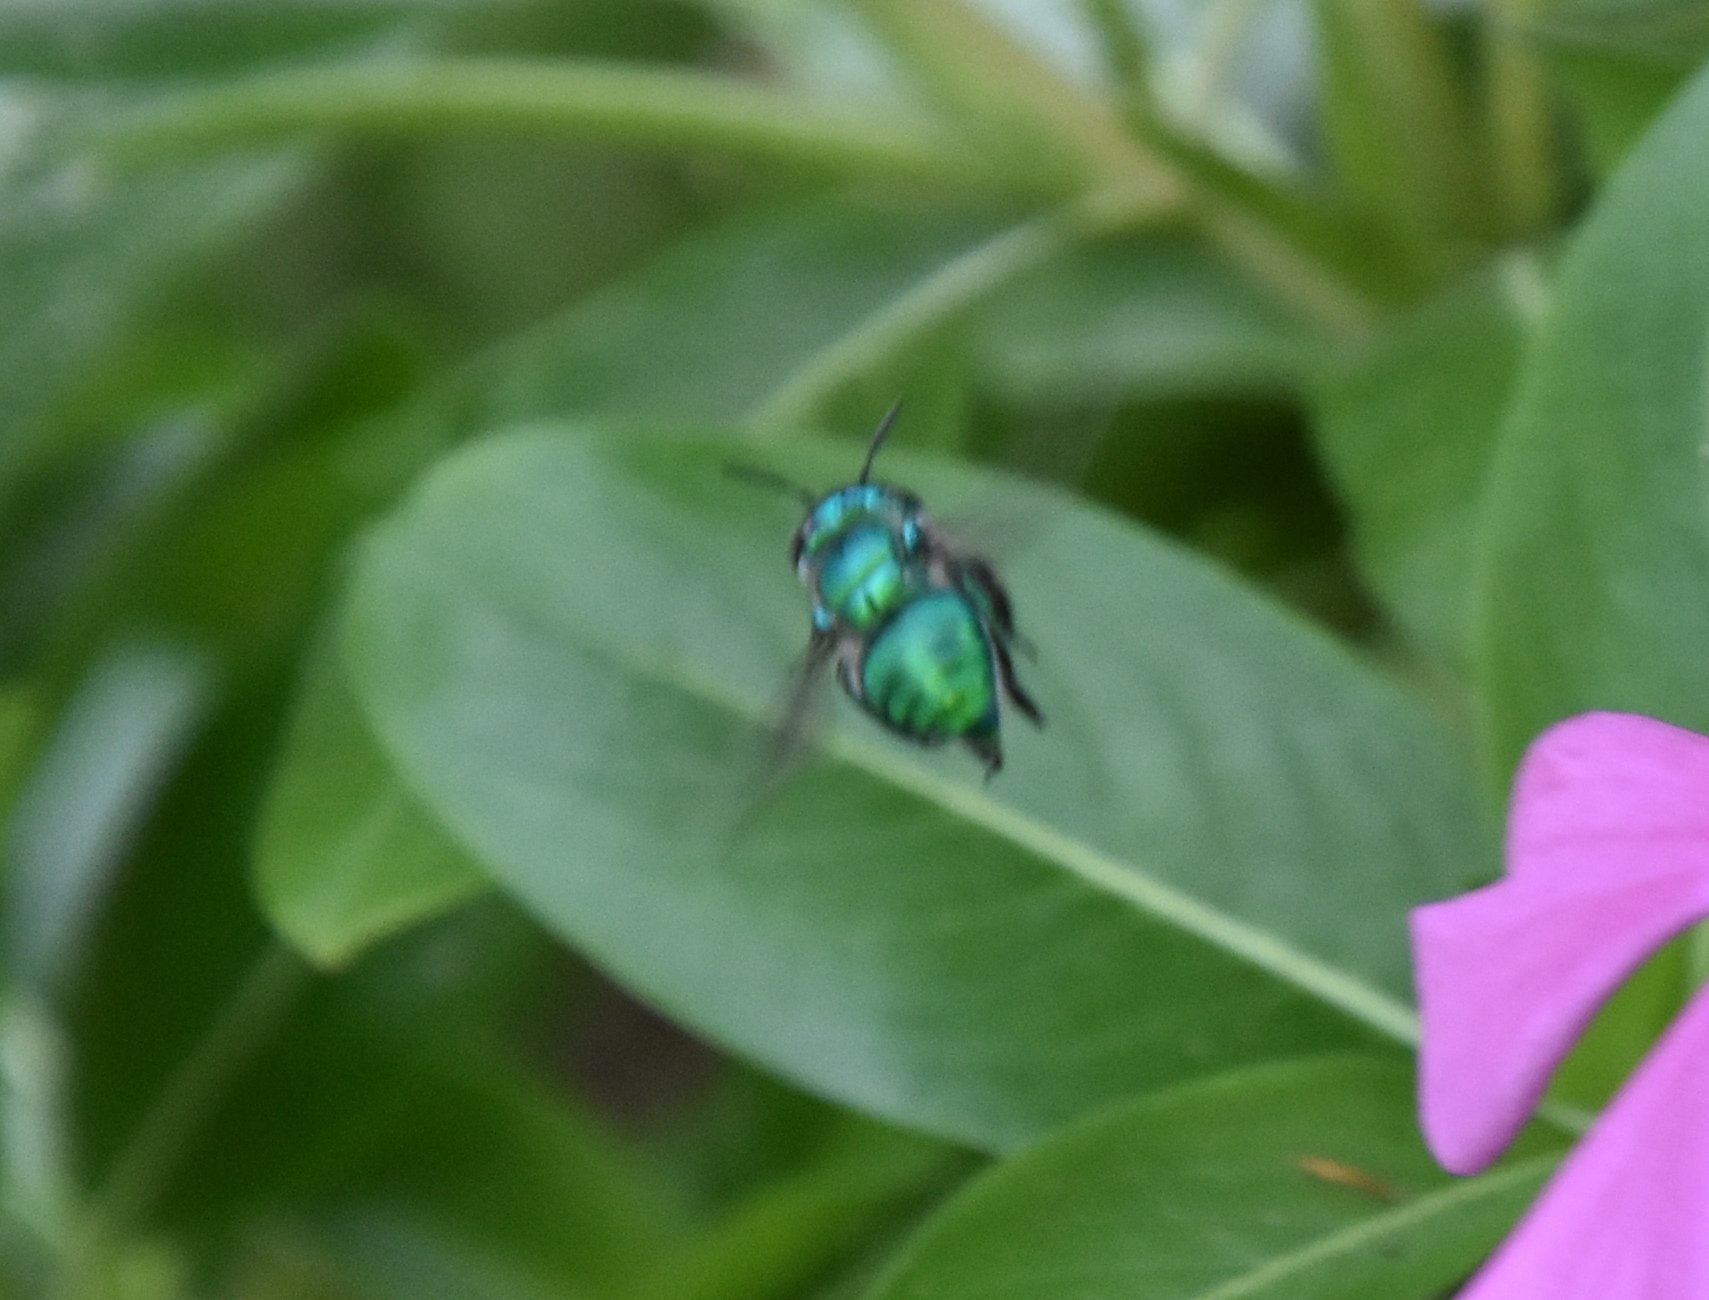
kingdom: Animalia
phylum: Arthropoda
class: Insecta
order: Hymenoptera
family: Apidae
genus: Euglossa
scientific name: Euglossa dilemma
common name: Green orchid bee
